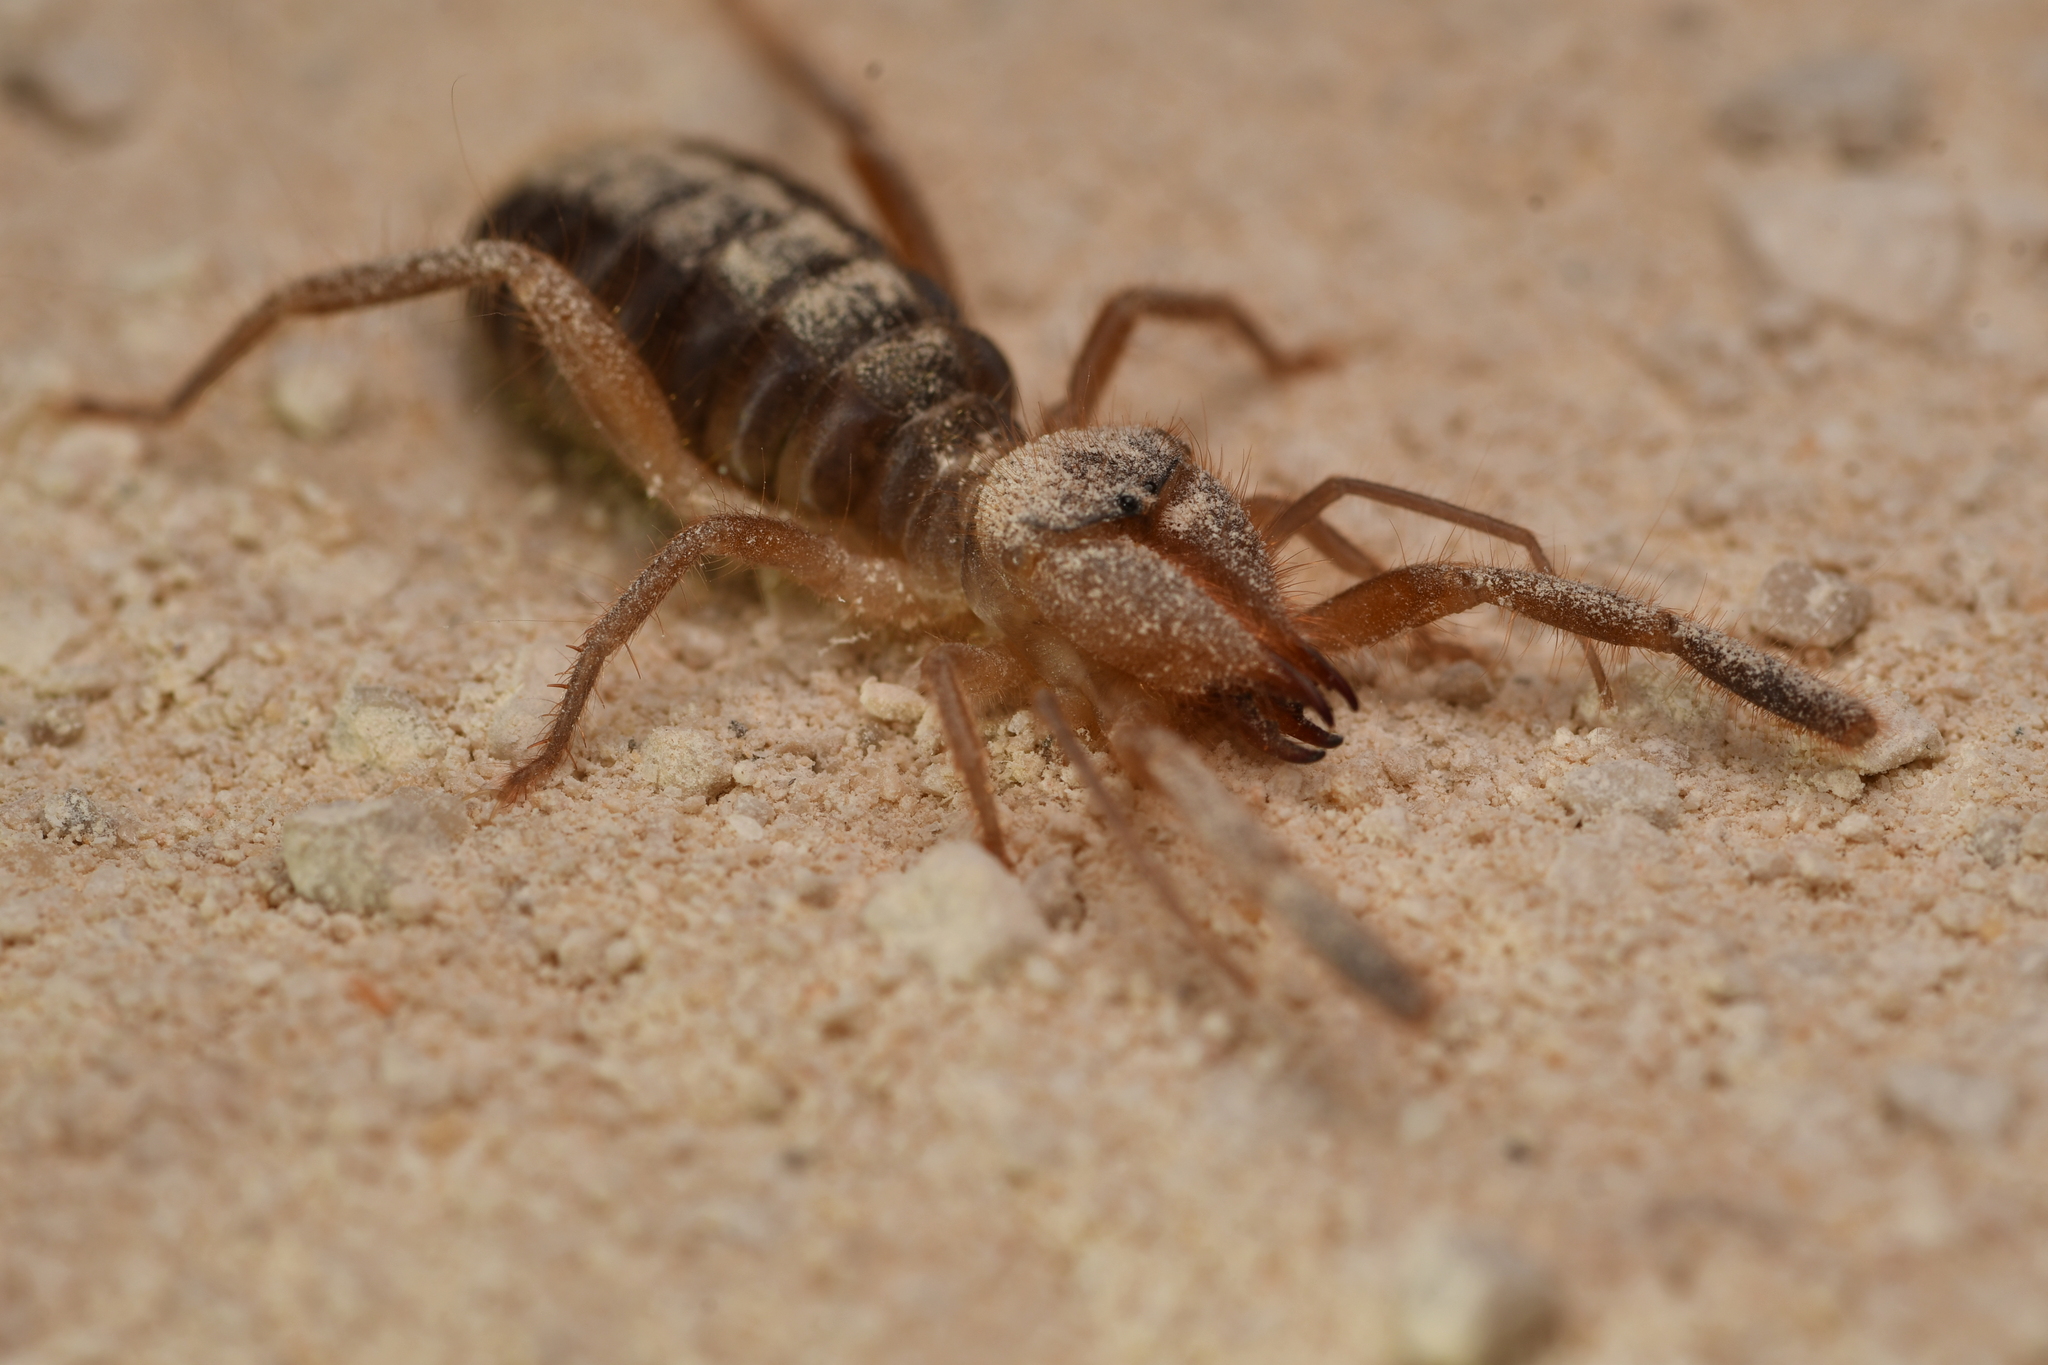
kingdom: Animalia
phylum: Arthropoda
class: Arachnida
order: Solifugae
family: Daesiidae
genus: Gluvia
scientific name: Gluvia dorsalis
